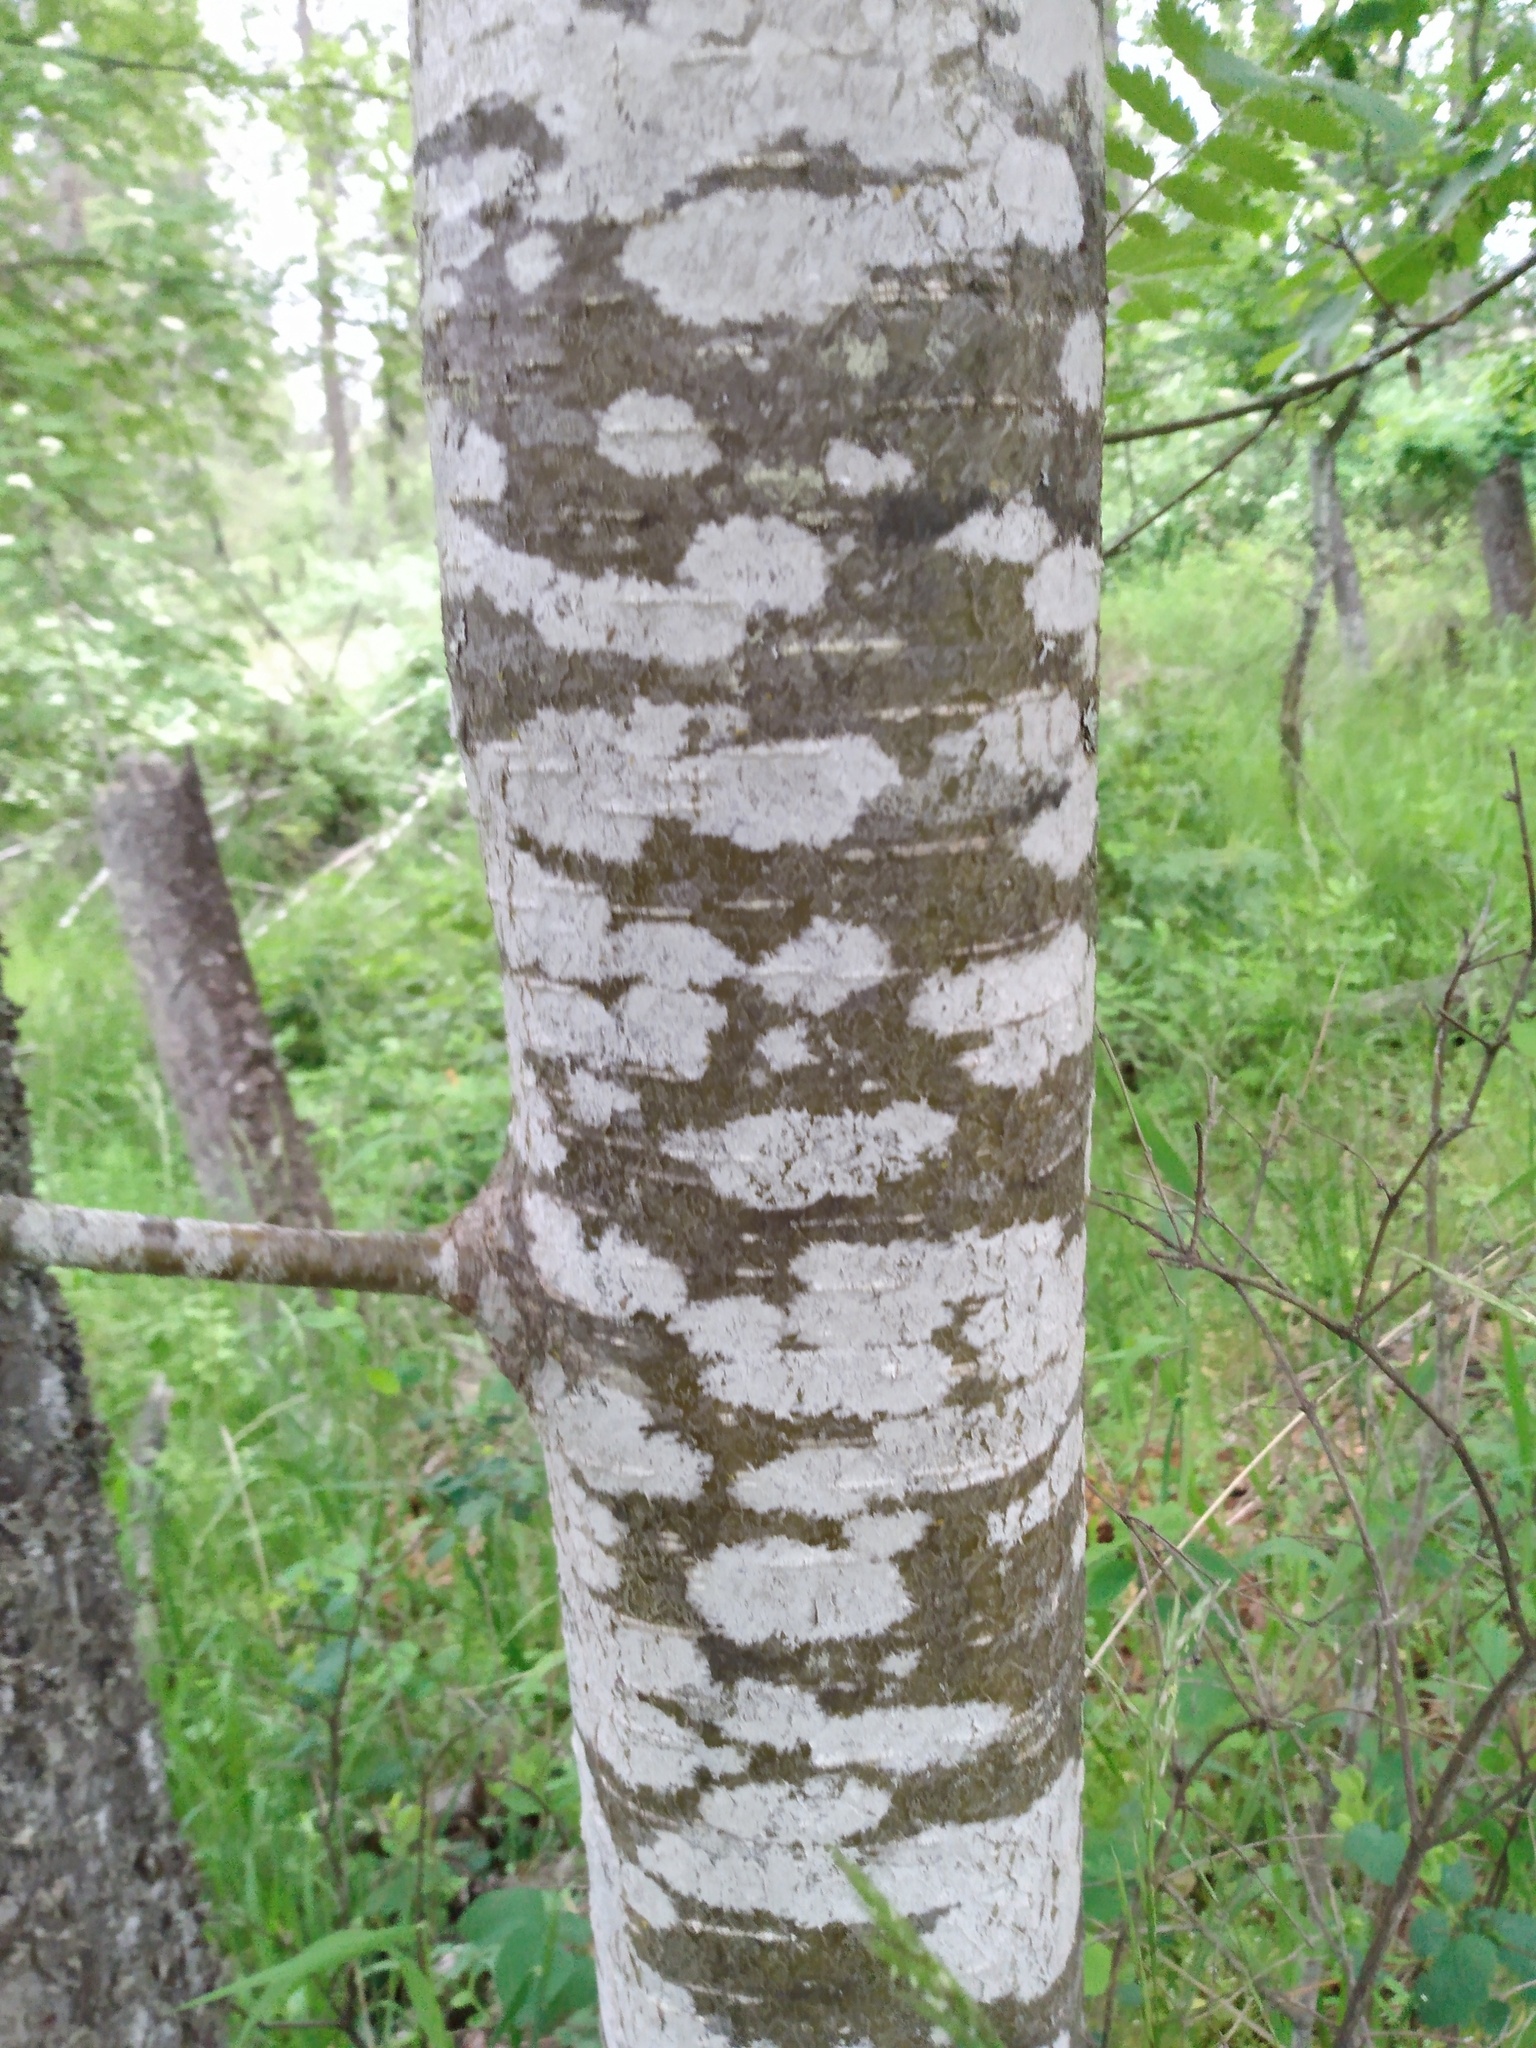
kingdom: Plantae
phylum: Tracheophyta
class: Magnoliopsida
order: Fagales
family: Betulaceae
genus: Alnus
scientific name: Alnus rubra
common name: Red alder
